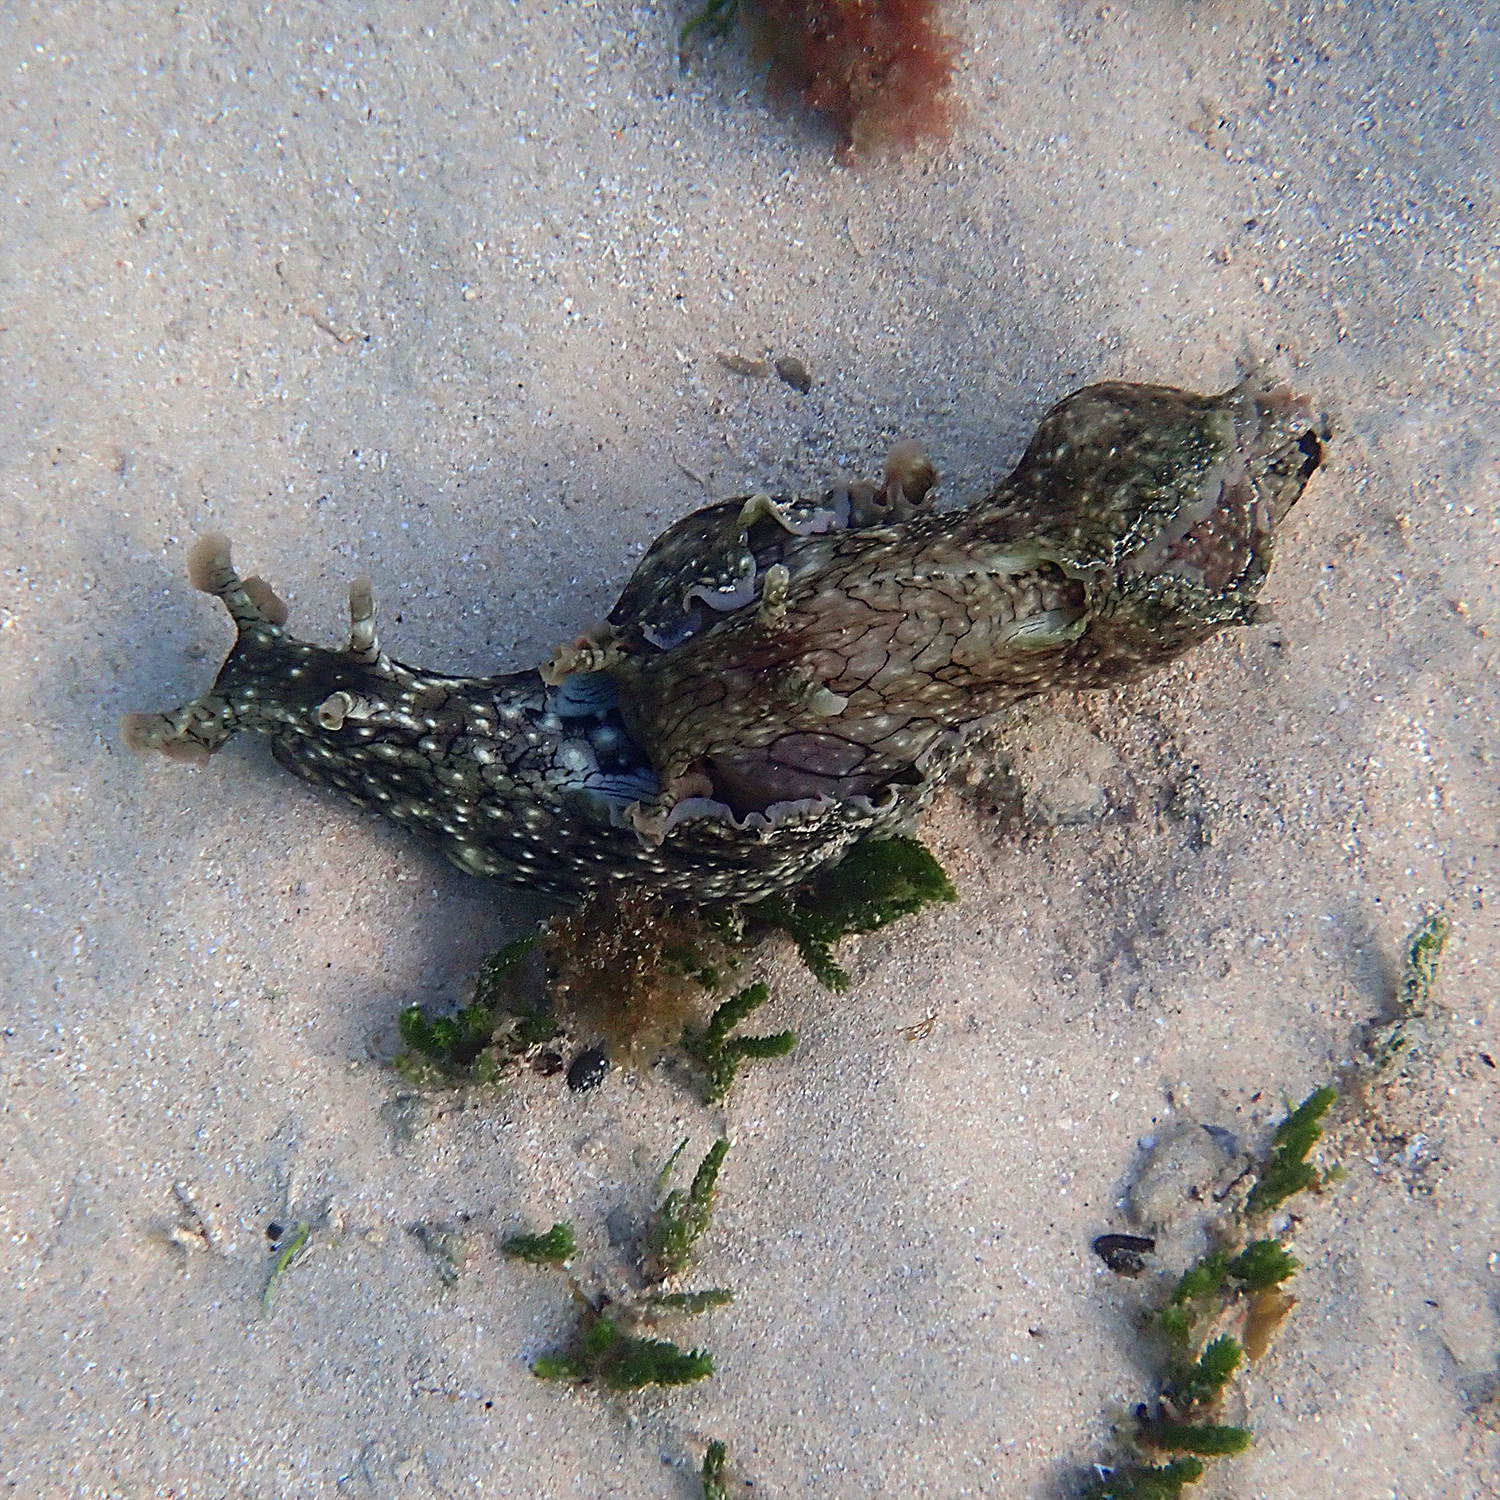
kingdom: Animalia
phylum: Mollusca
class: Gastropoda
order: Aplysiida
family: Aplysiidae
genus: Aplysia
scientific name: Aplysia argus
